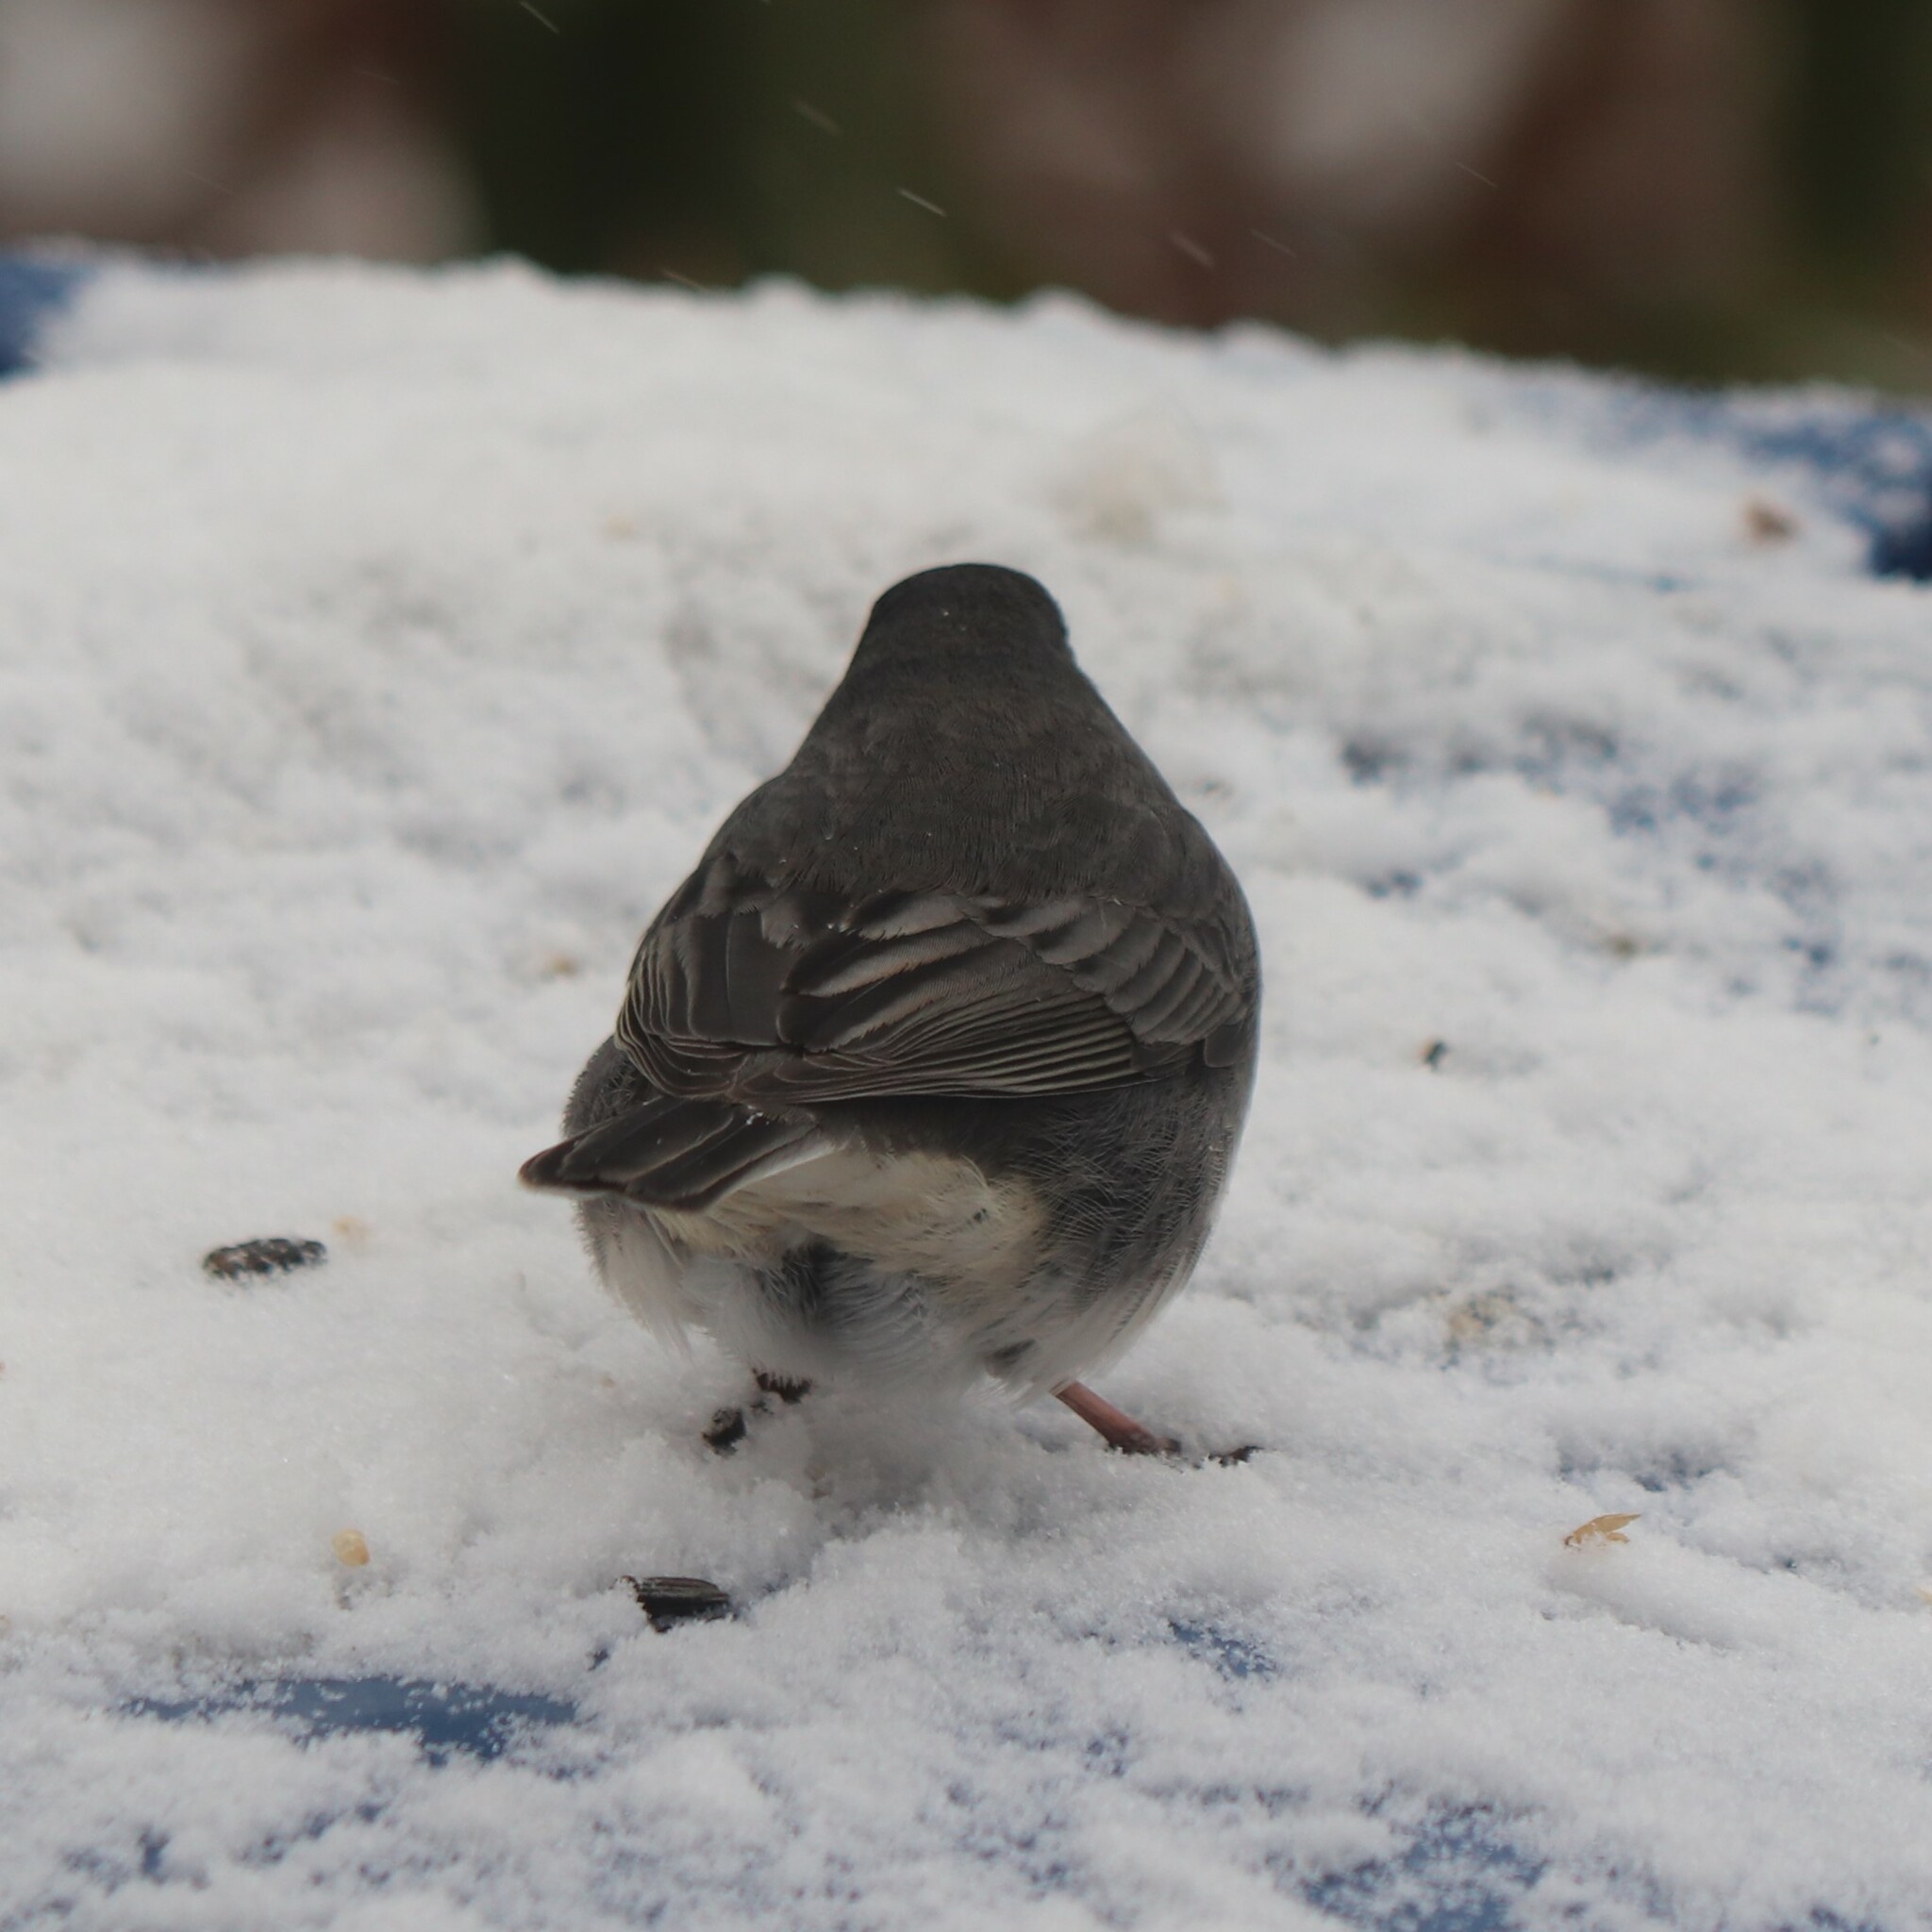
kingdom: Animalia
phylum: Chordata
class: Aves
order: Passeriformes
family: Passerellidae
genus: Junco
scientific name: Junco hyemalis
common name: Dark-eyed junco
